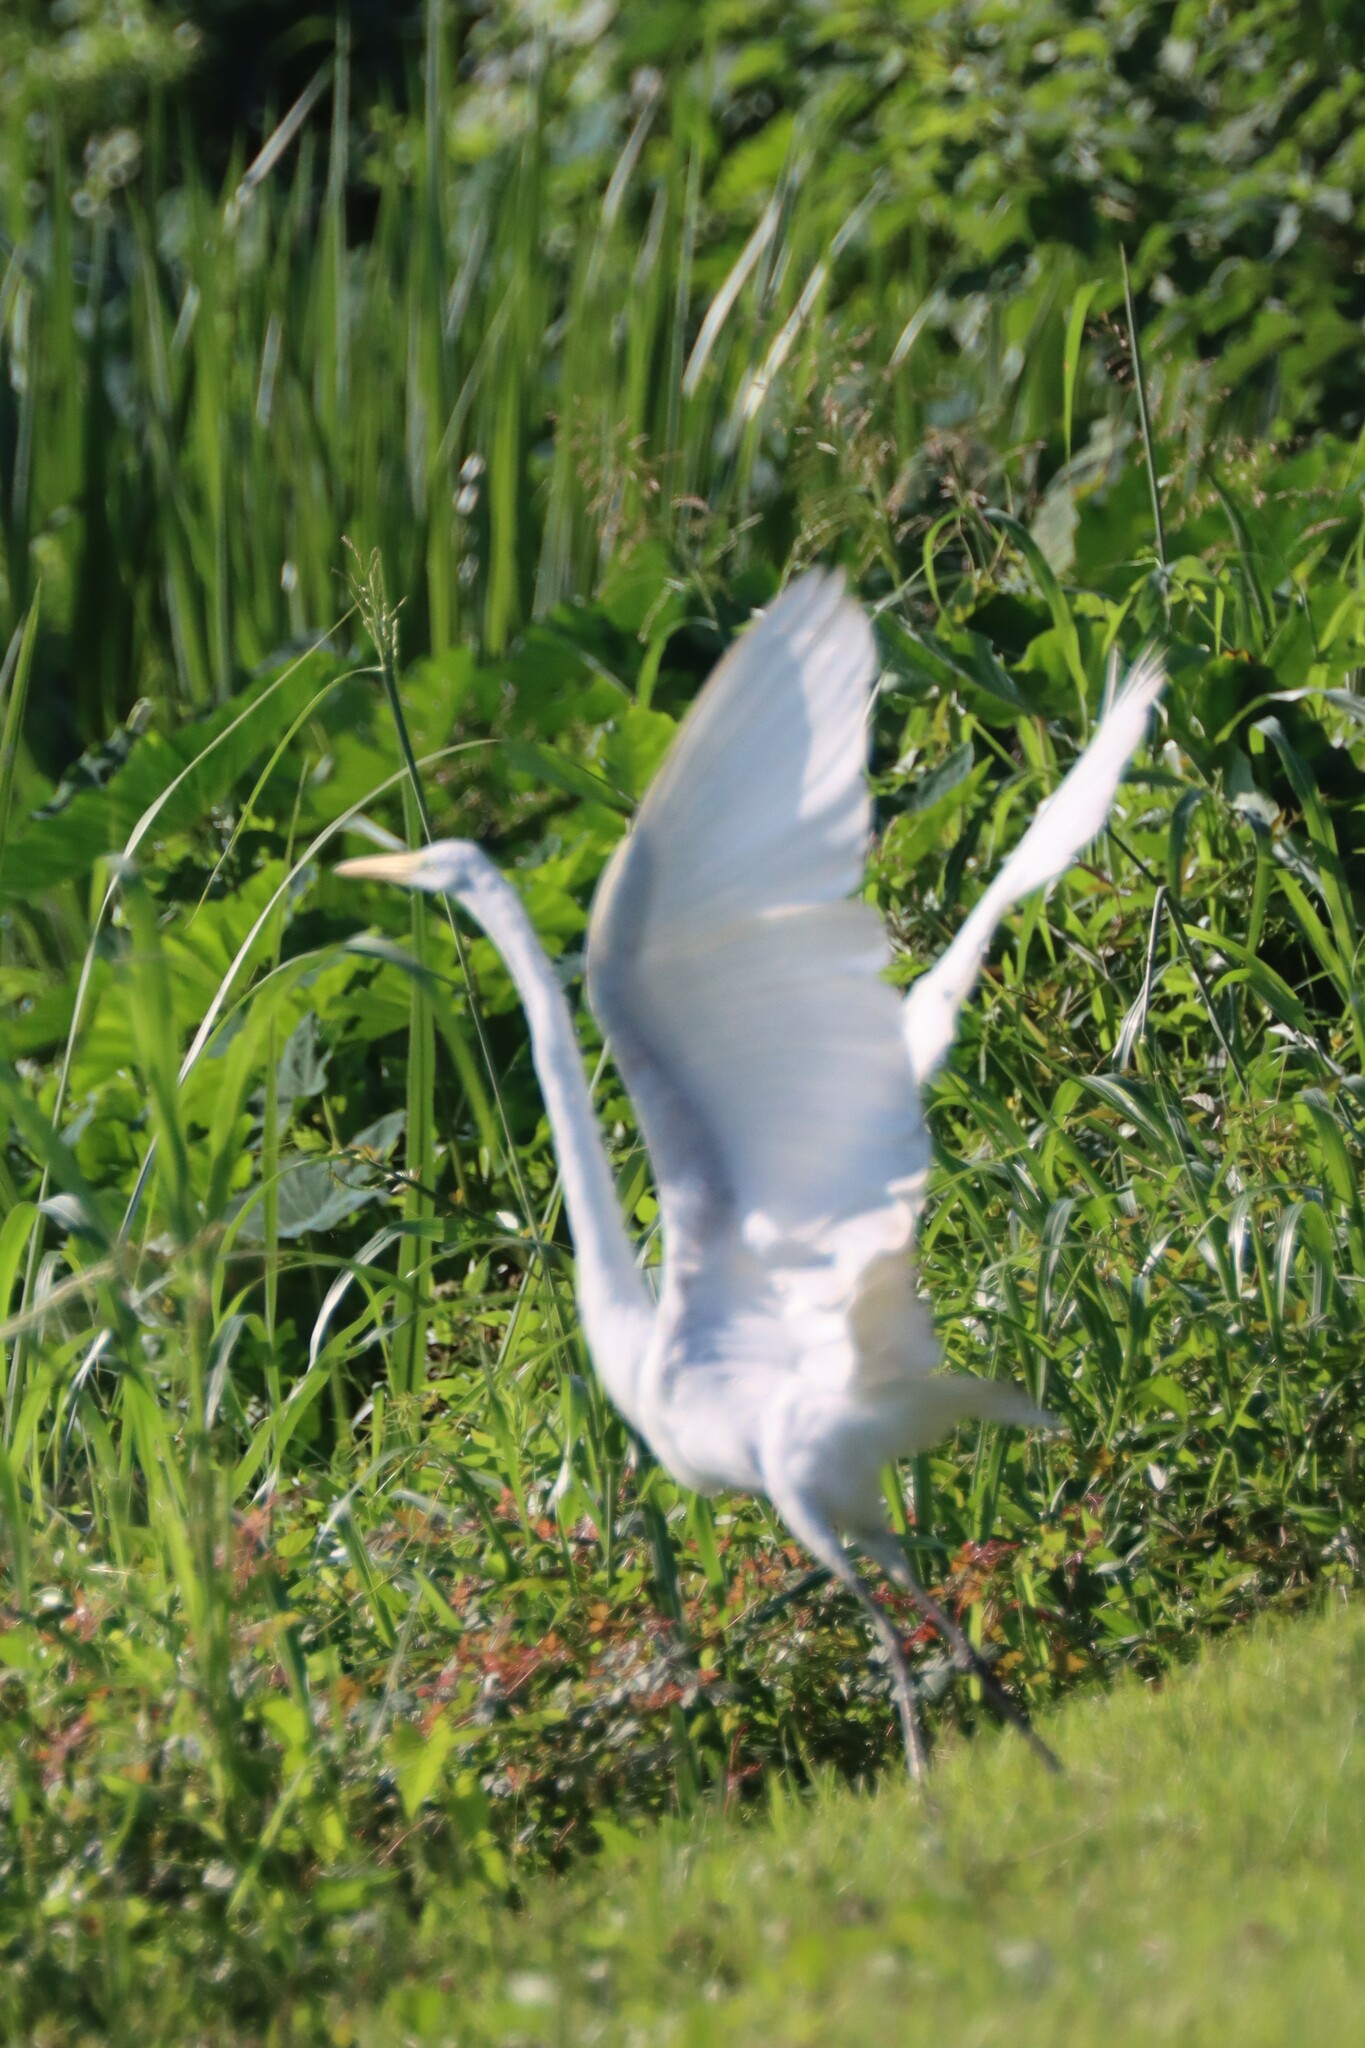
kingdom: Animalia
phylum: Chordata
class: Aves
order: Pelecaniformes
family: Ardeidae
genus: Ardea
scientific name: Ardea alba
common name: Great egret
